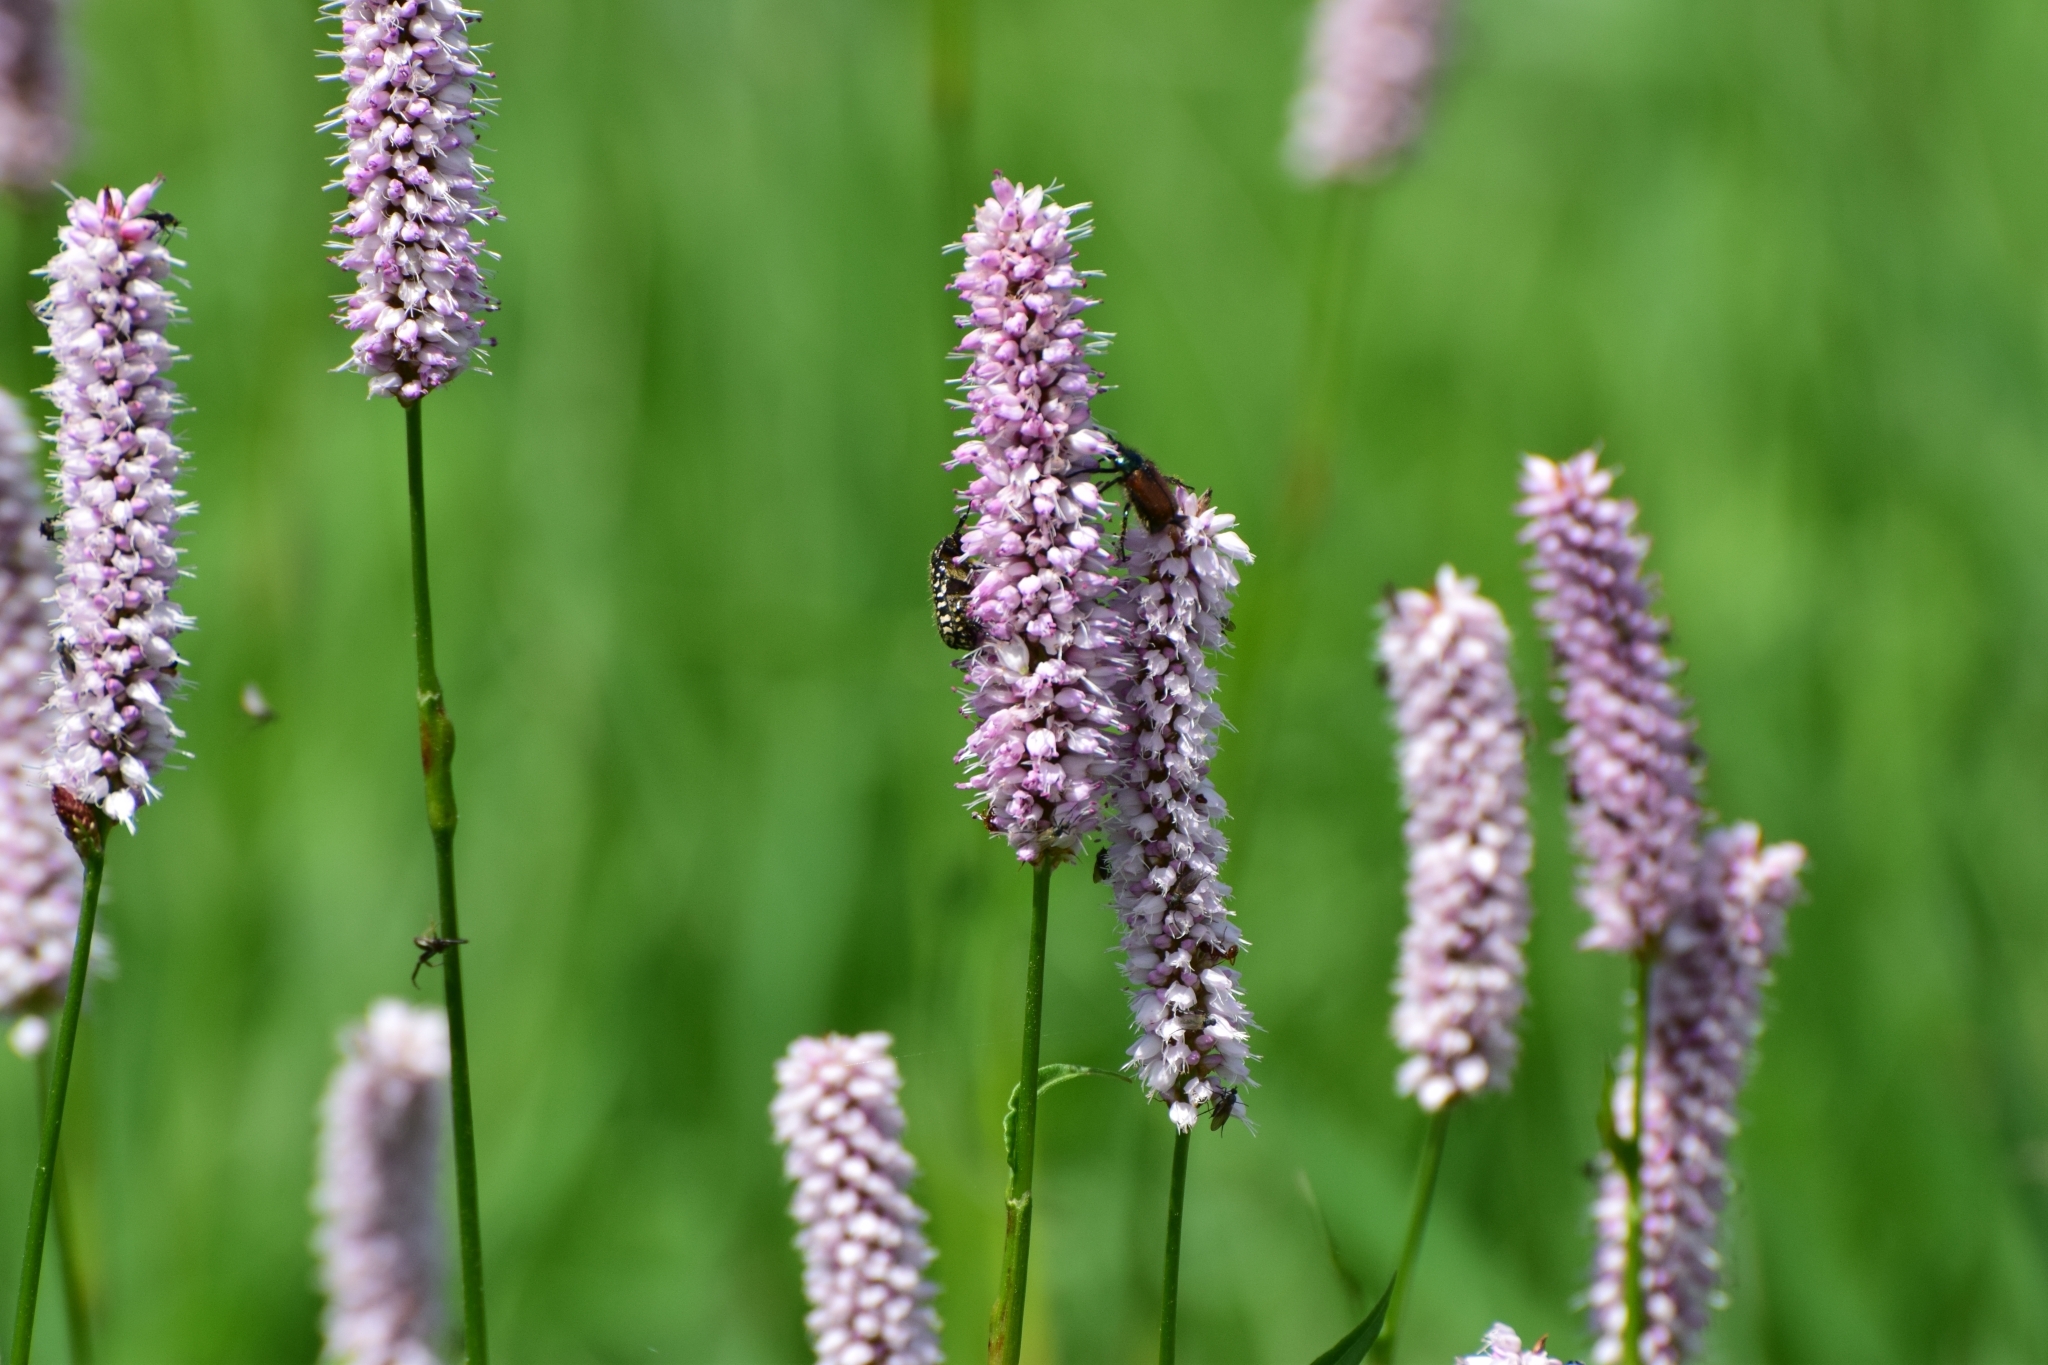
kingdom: Plantae
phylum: Tracheophyta
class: Magnoliopsida
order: Caryophyllales
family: Polygonaceae
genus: Bistorta
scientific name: Bistorta officinalis
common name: Common bistort
